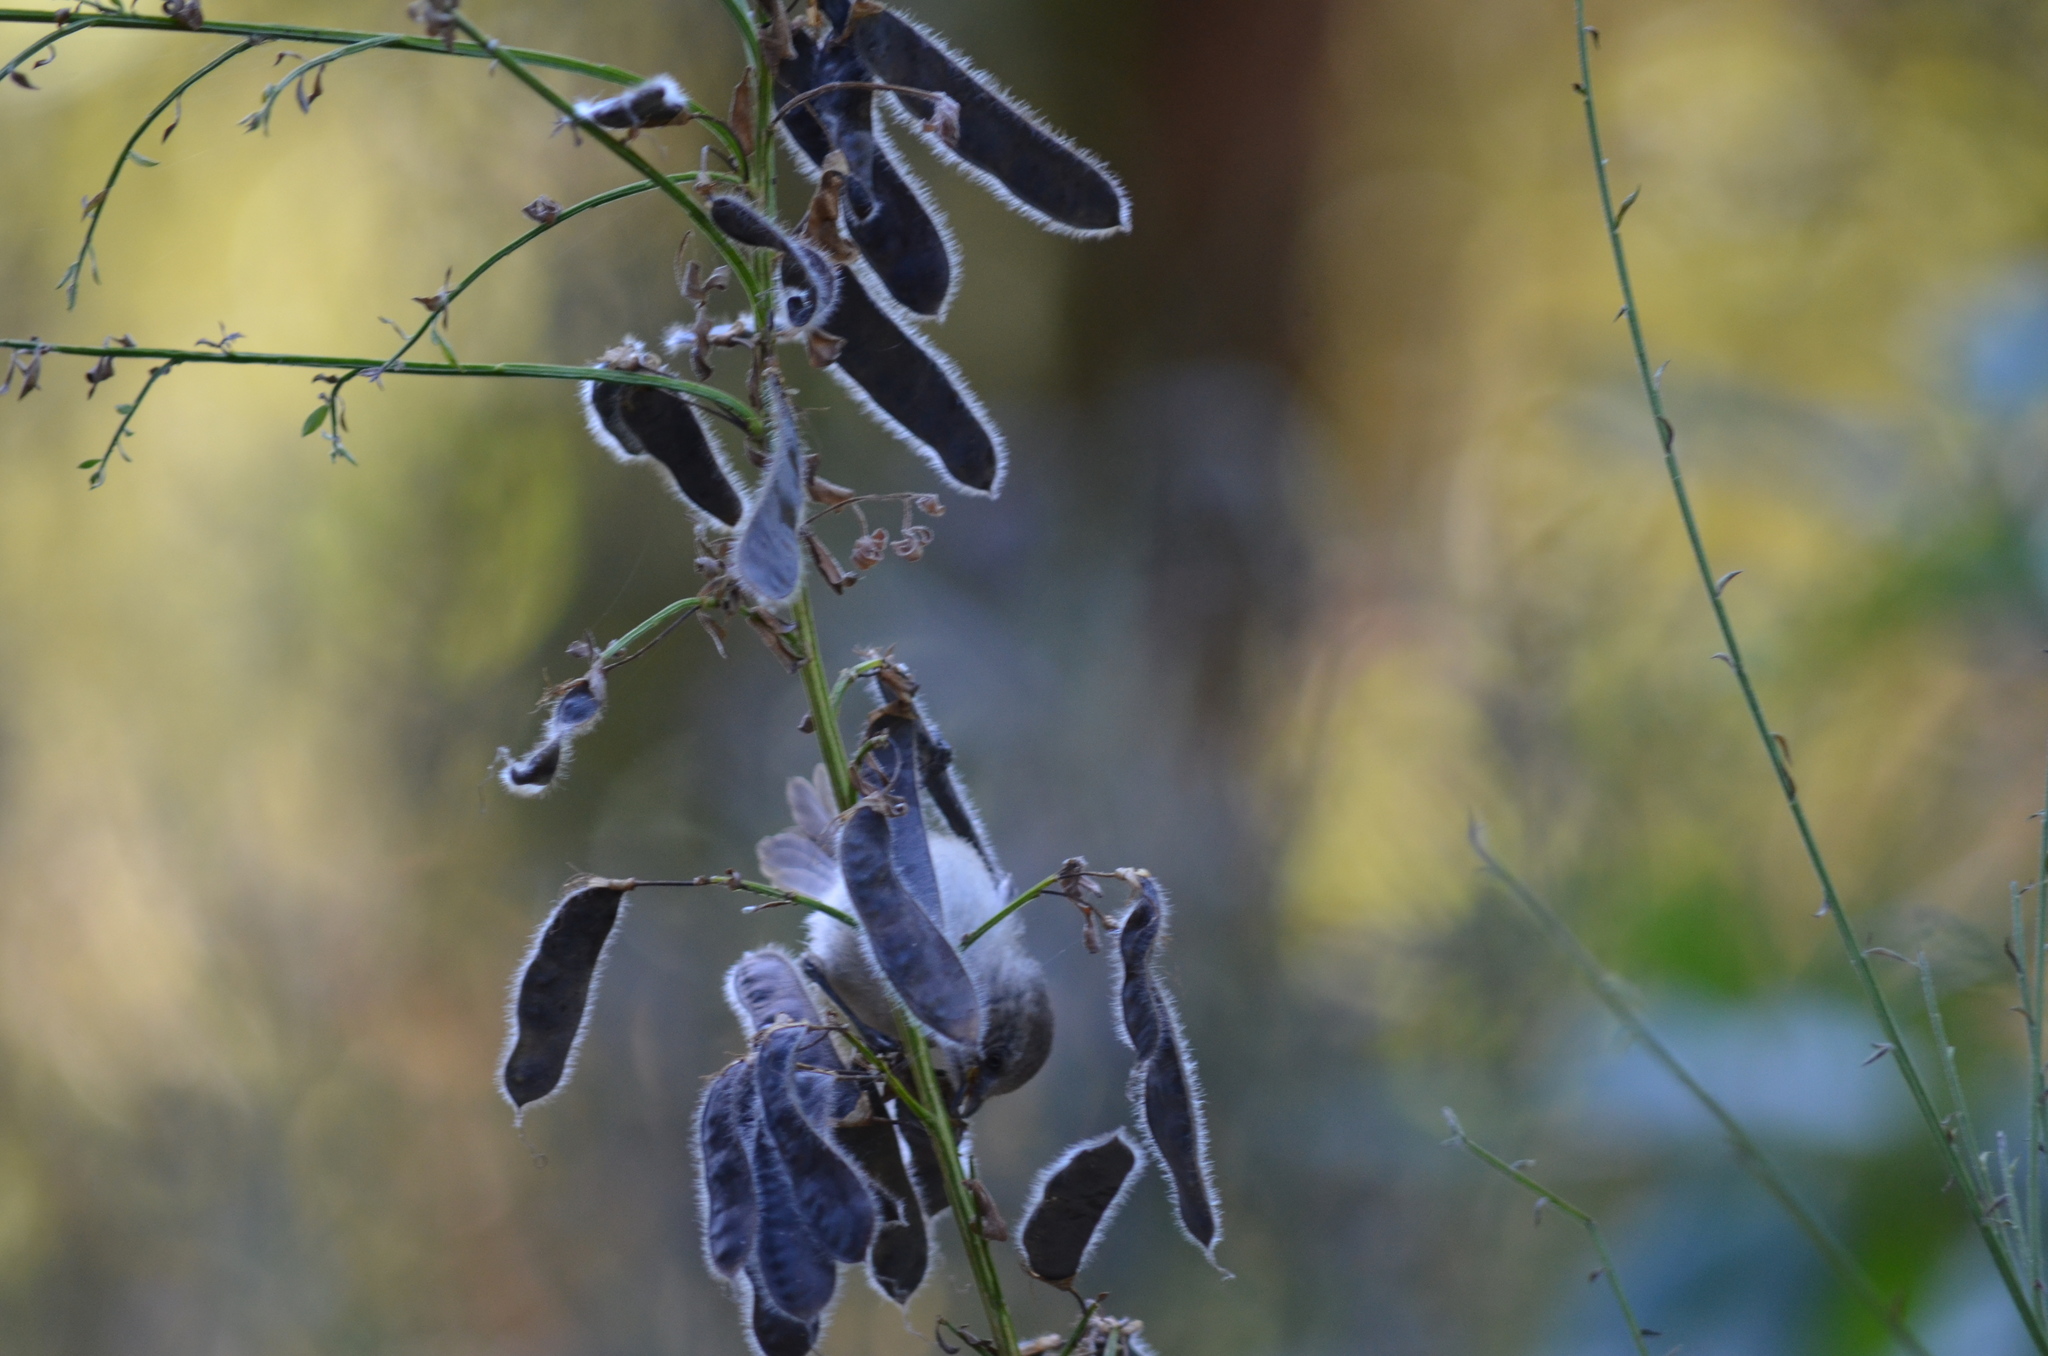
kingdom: Plantae
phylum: Tracheophyta
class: Magnoliopsida
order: Fabales
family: Fabaceae
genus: Cytisus
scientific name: Cytisus scoparius
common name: Scotch broom
